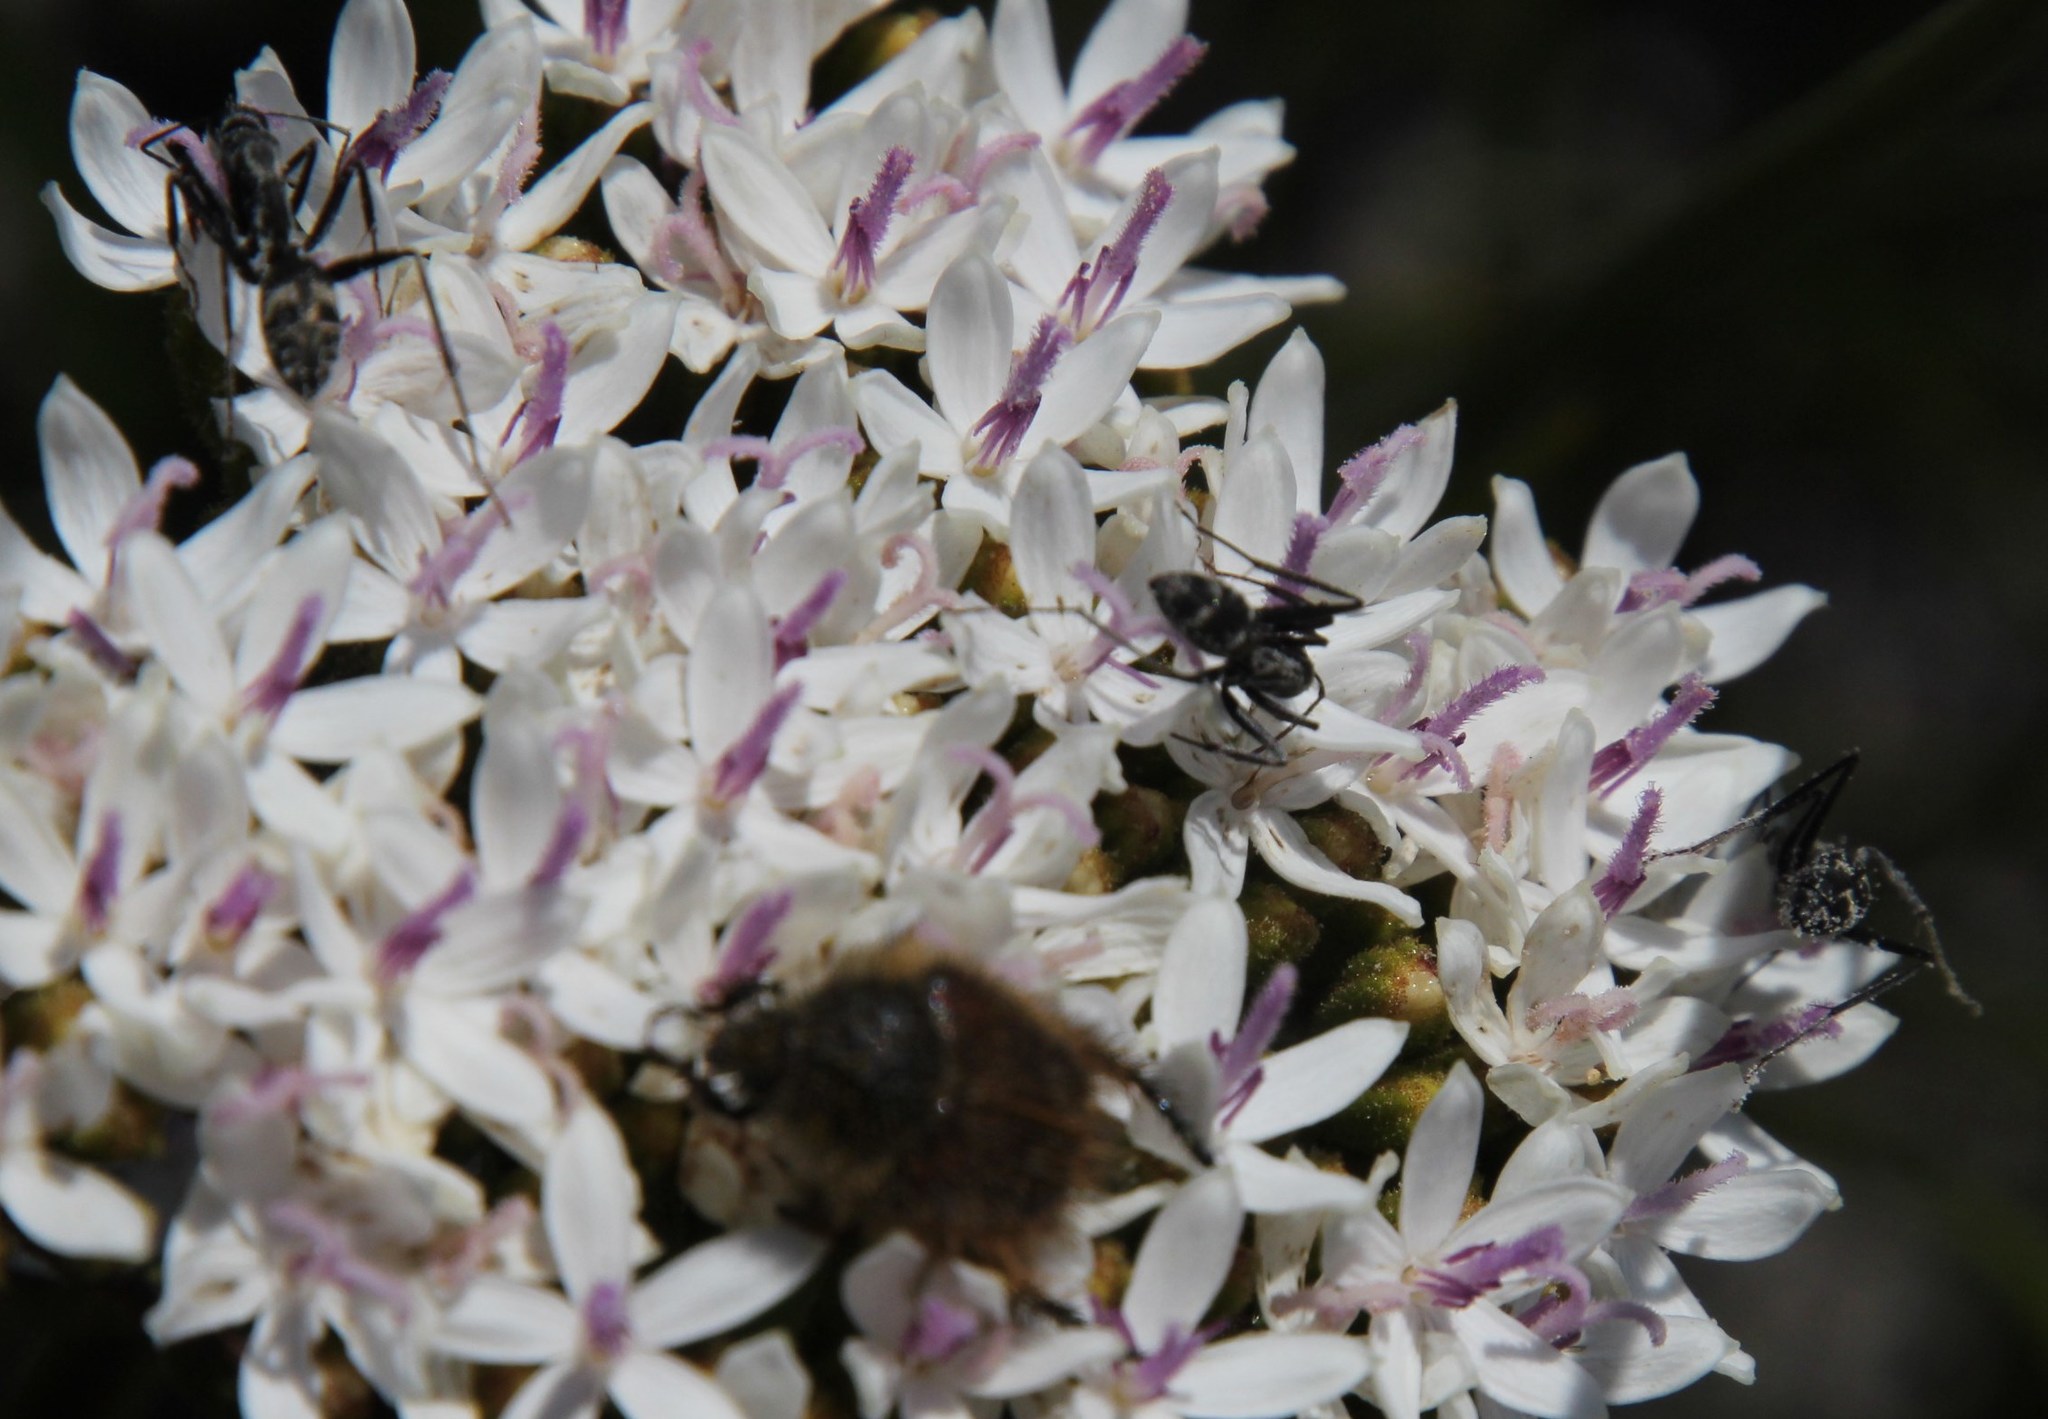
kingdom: Animalia
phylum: Arthropoda
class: Insecta
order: Hymenoptera
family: Formicidae
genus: Camponotus
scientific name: Camponotus angusticeps
